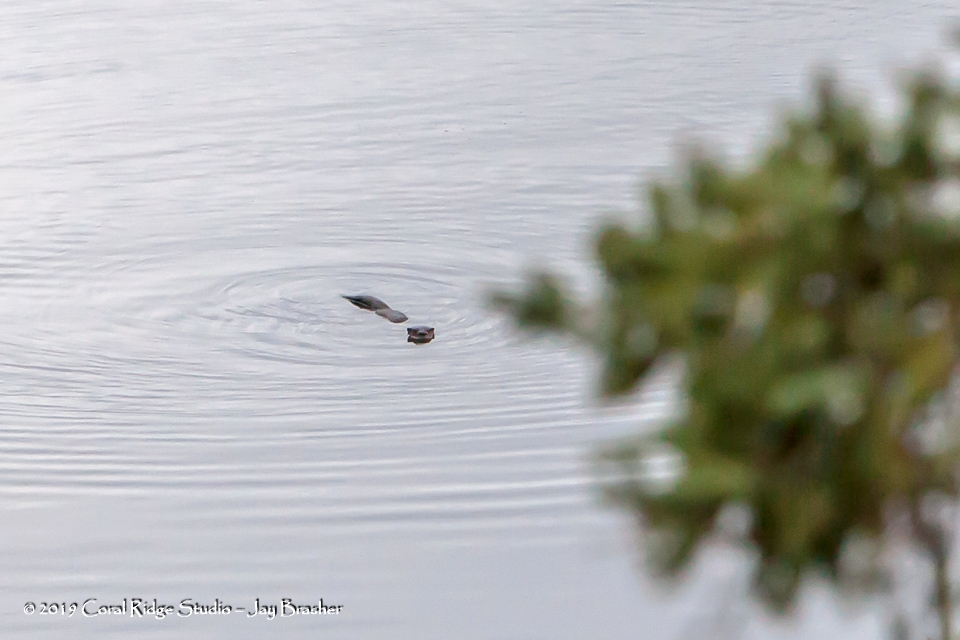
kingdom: Animalia
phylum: Chordata
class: Mammalia
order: Carnivora
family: Mustelidae
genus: Lontra
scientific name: Lontra canadensis
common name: North american river otter
